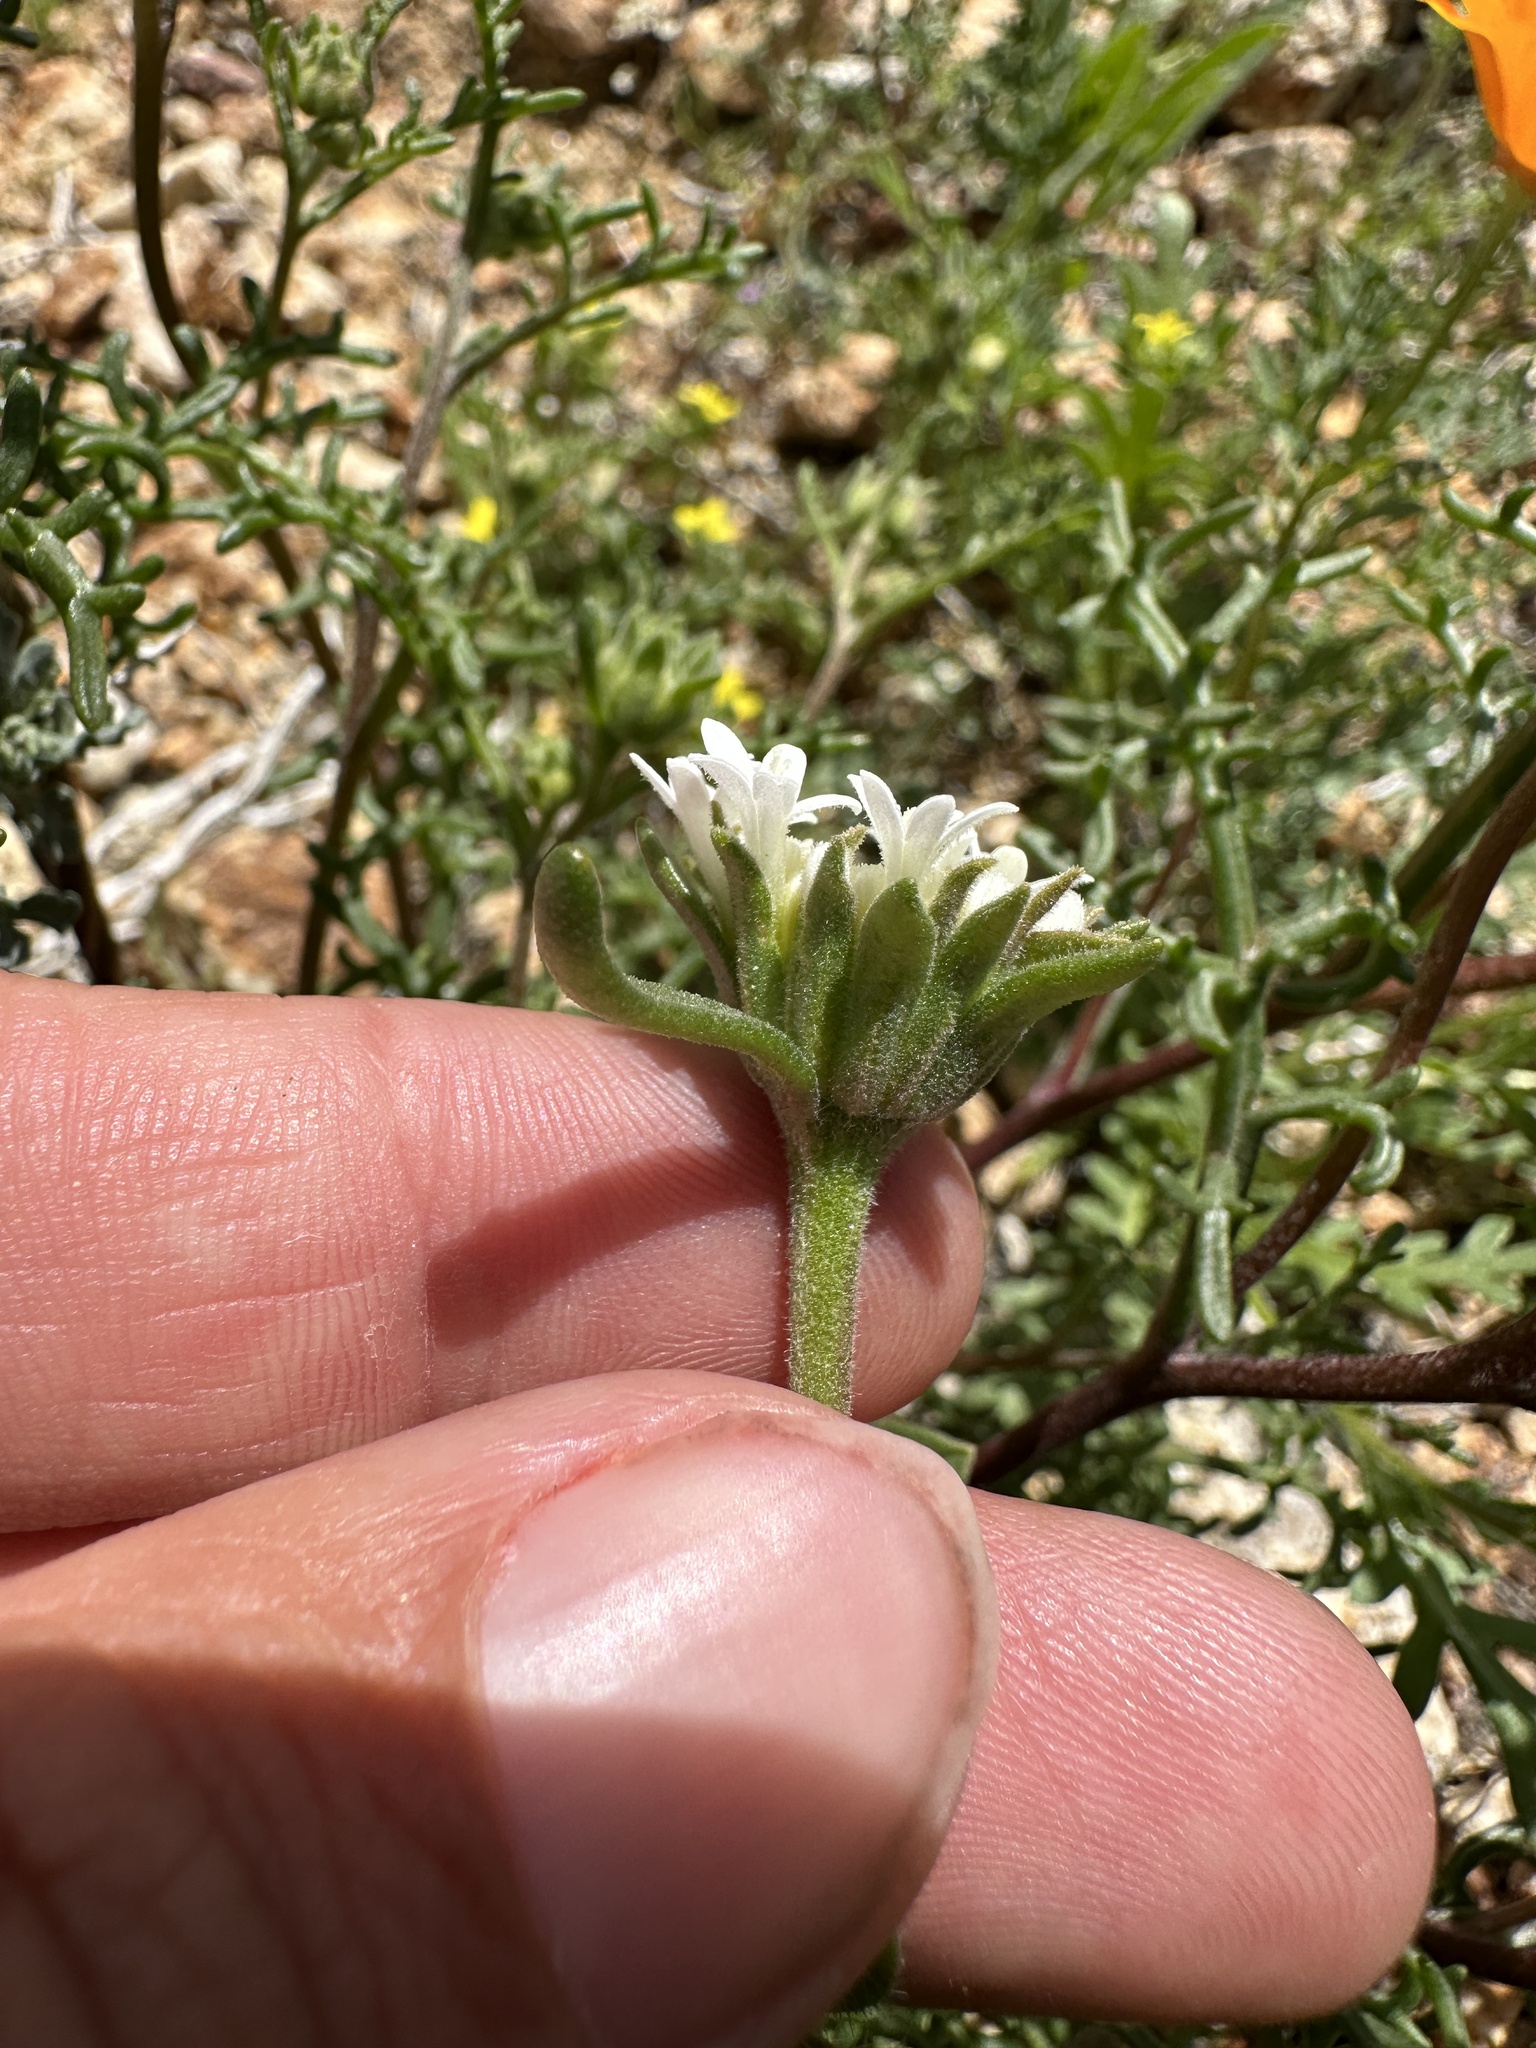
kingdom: Plantae
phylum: Tracheophyta
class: Magnoliopsida
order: Asterales
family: Asteraceae
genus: Chaenactis
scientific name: Chaenactis stevioides
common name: Desert pincushion
